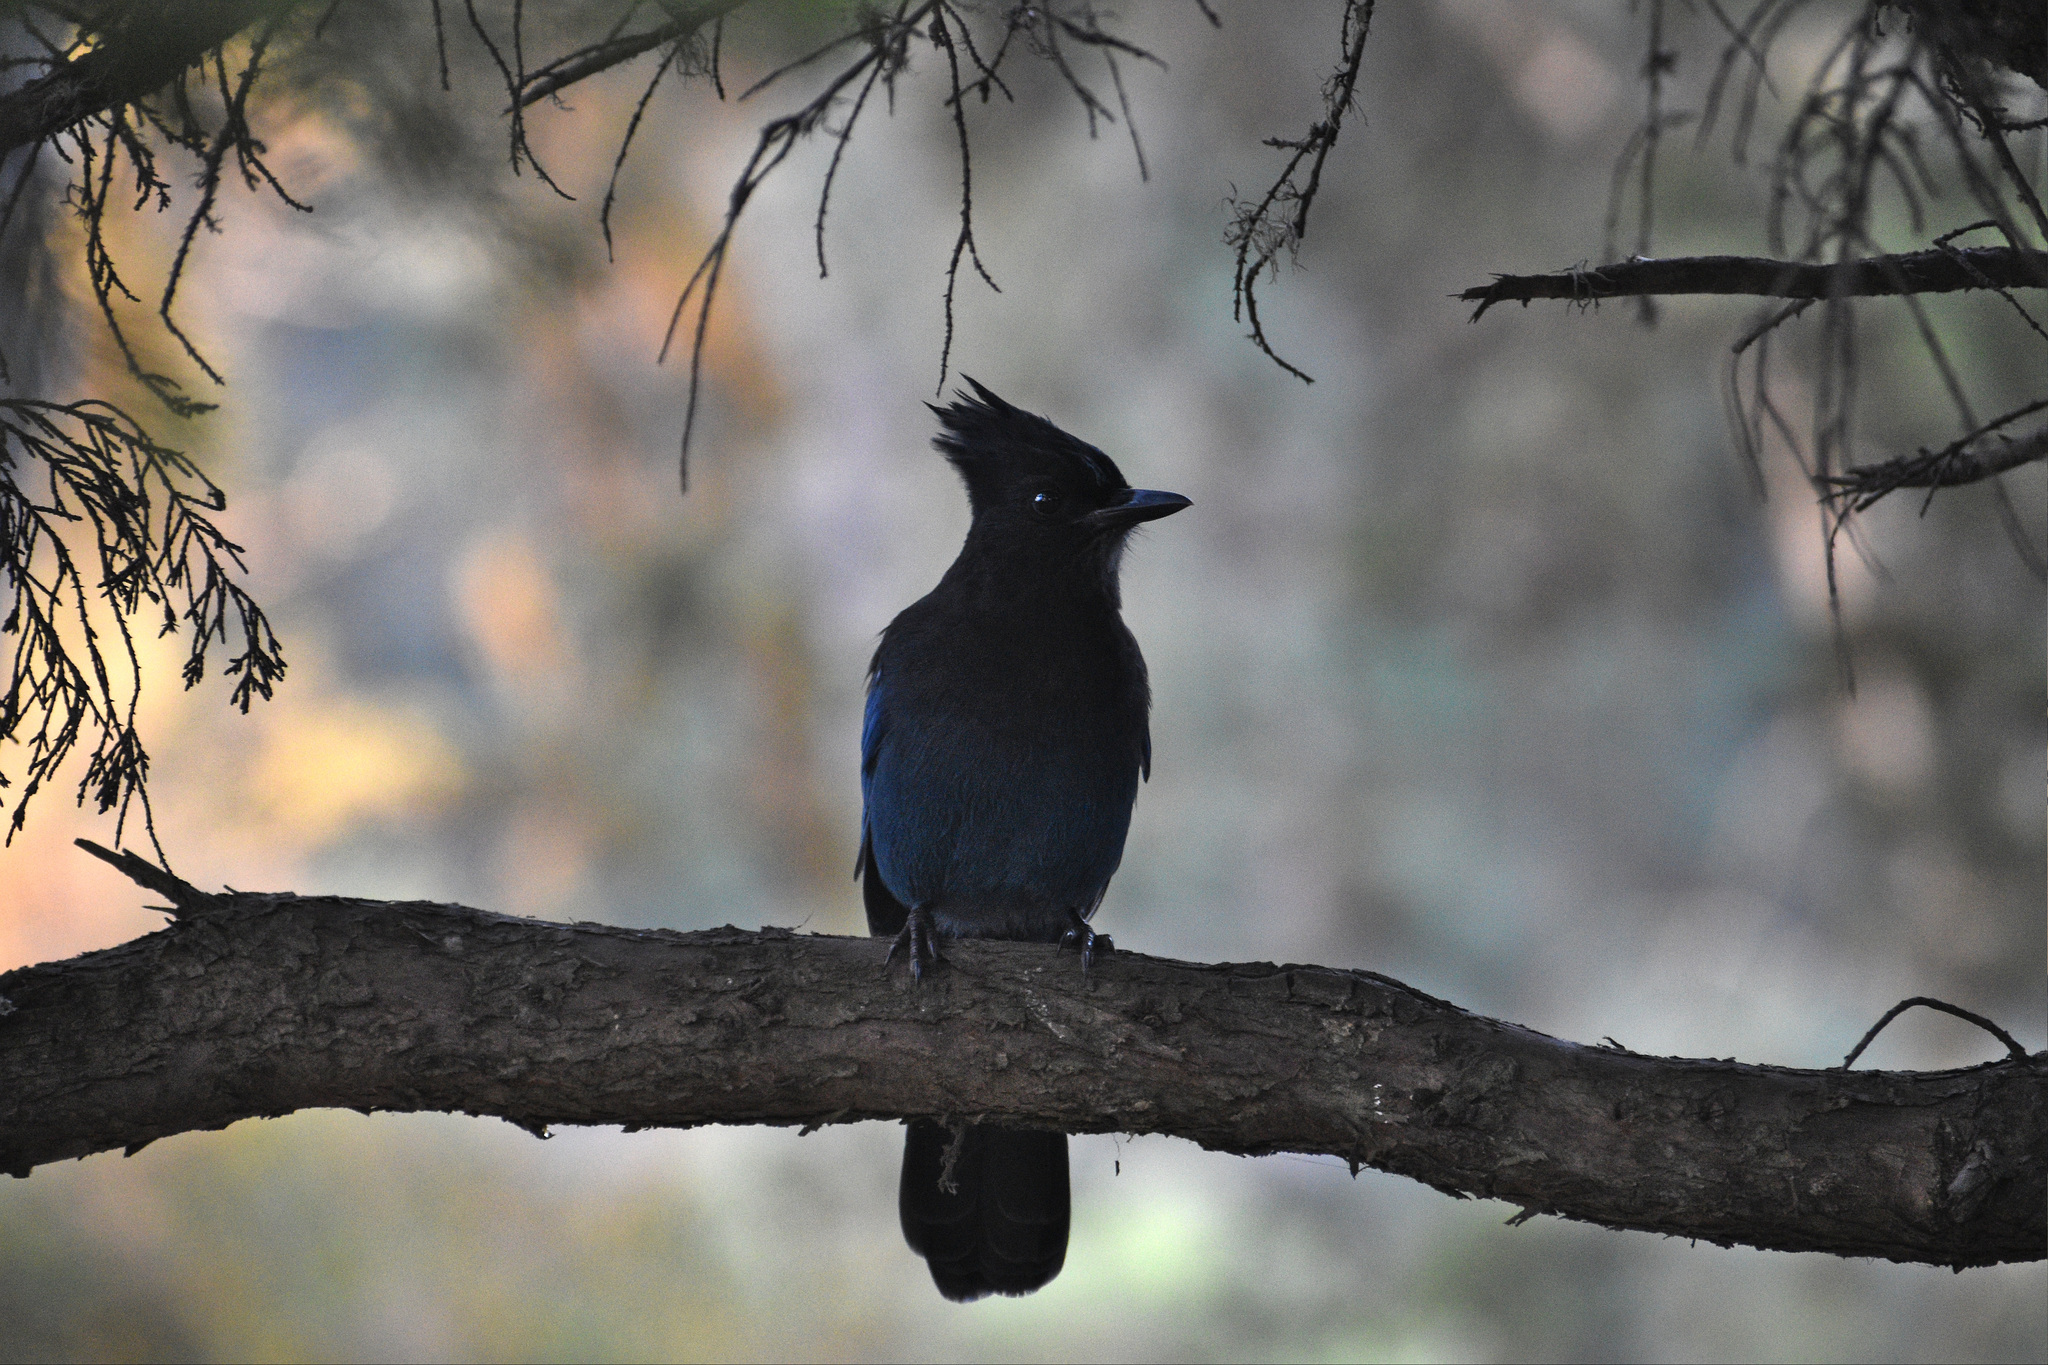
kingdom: Animalia
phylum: Chordata
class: Aves
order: Passeriformes
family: Corvidae
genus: Cyanocitta
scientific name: Cyanocitta stelleri
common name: Steller's jay
